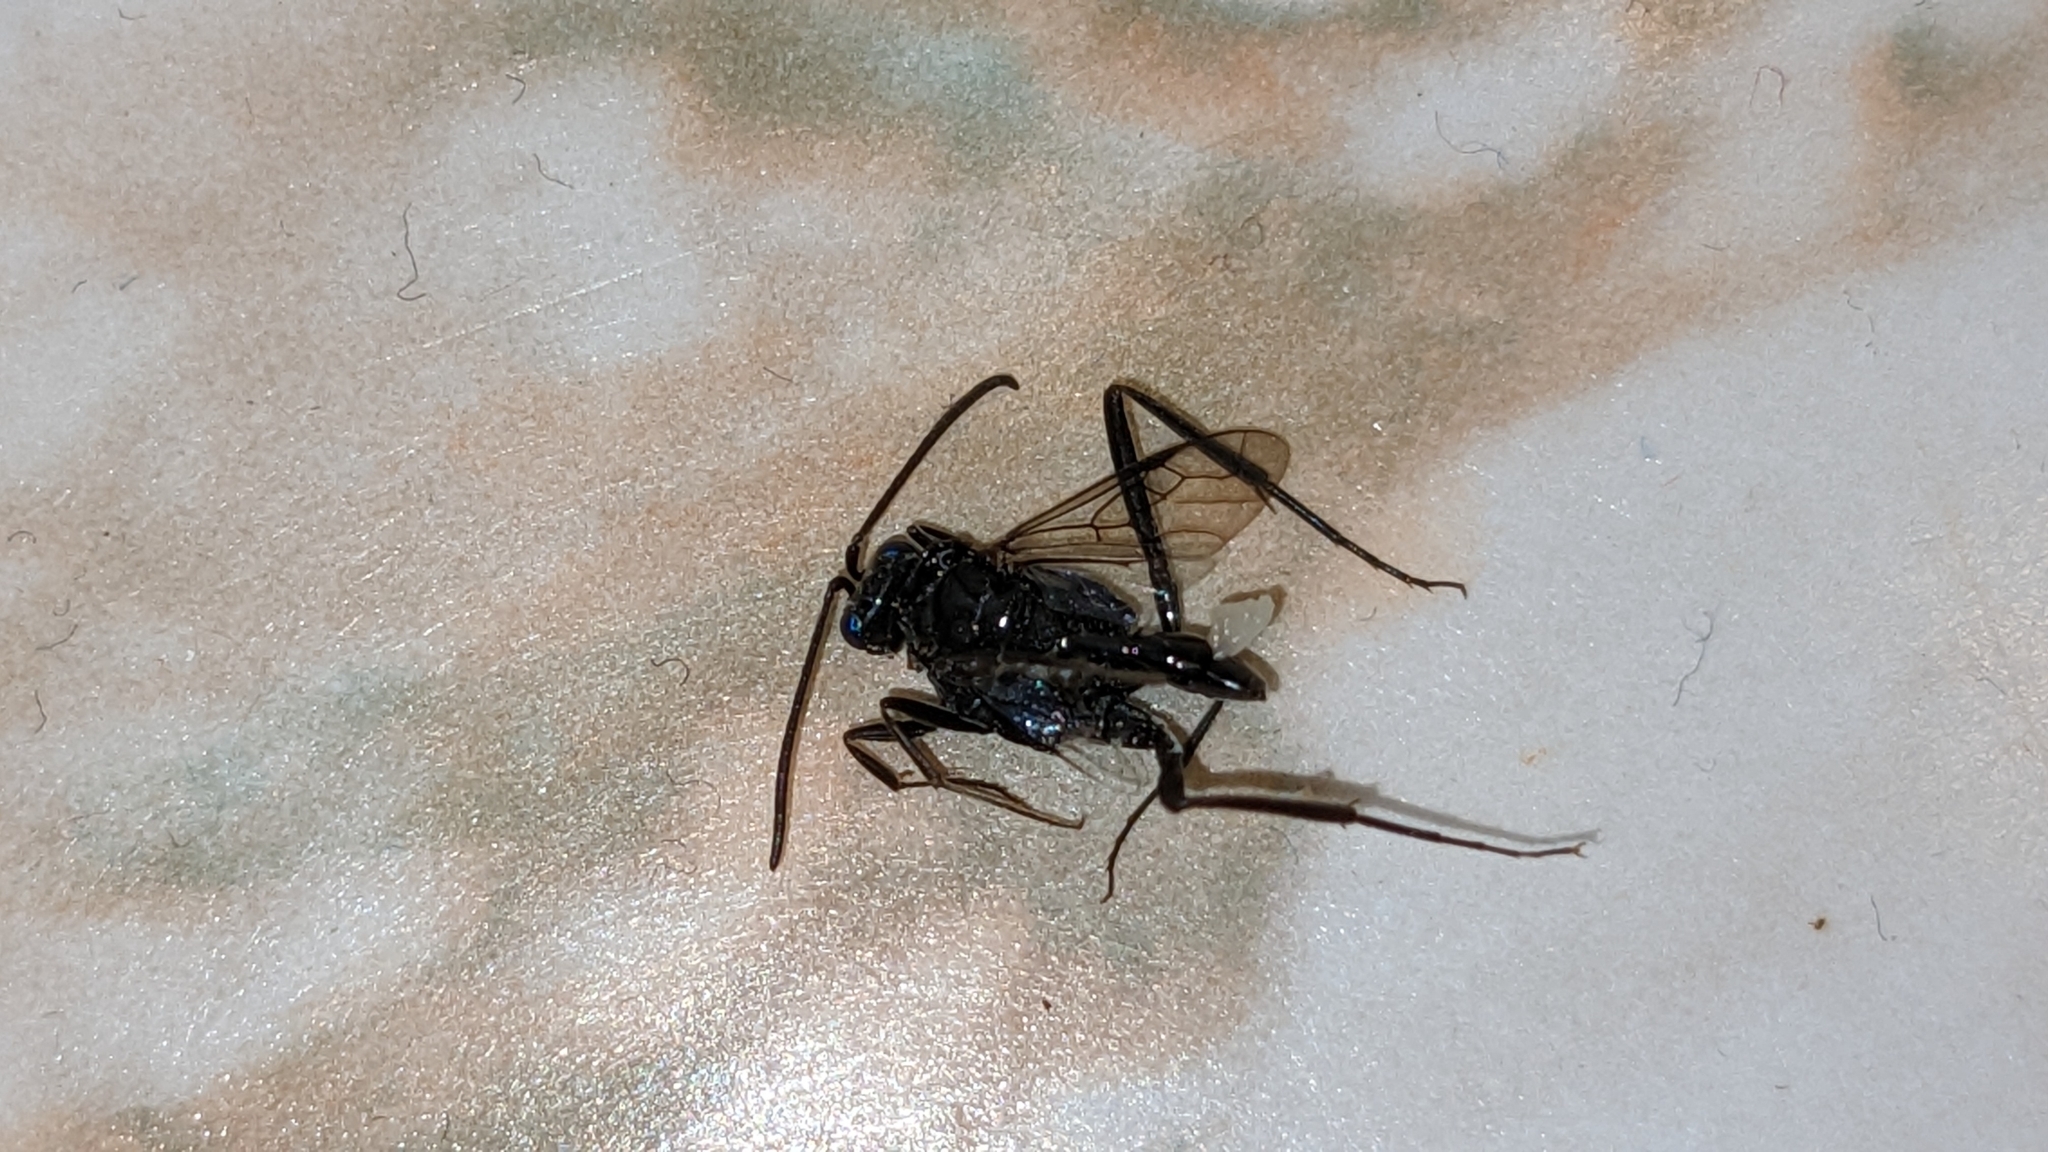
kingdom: Animalia
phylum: Arthropoda
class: Insecta
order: Hymenoptera
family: Evaniidae
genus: Evania
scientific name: Evania appendigaster
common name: Ensign wasp
